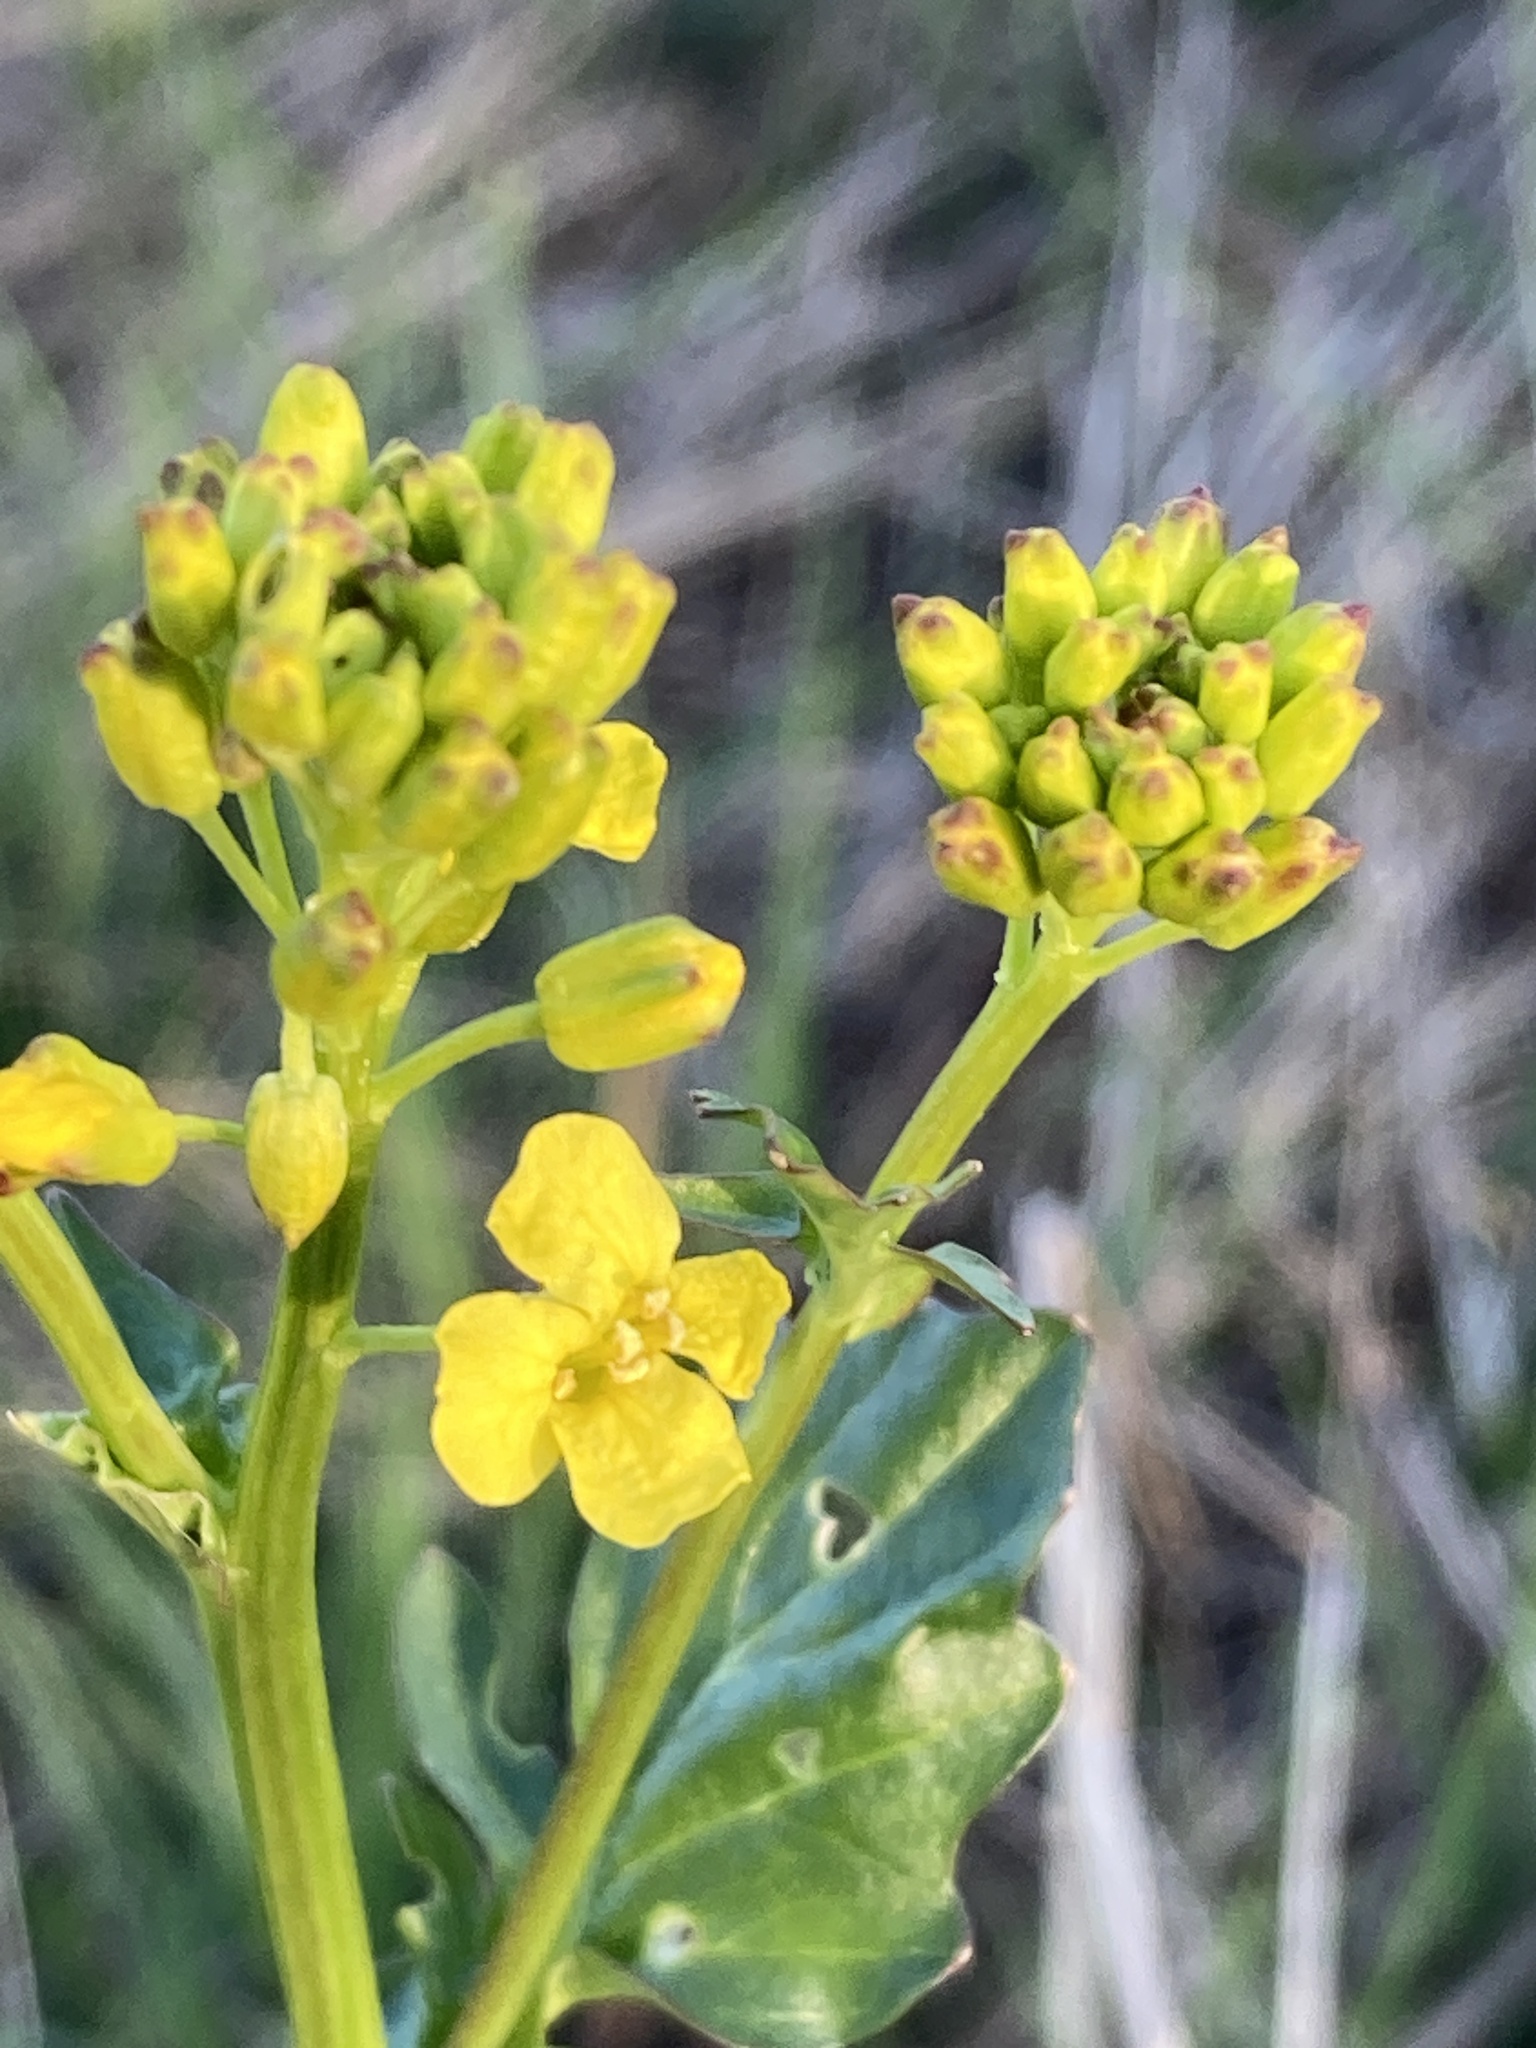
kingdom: Plantae
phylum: Tracheophyta
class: Magnoliopsida
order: Brassicales
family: Brassicaceae
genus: Barbarea
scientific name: Barbarea vulgaris
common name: Cressy-greens
